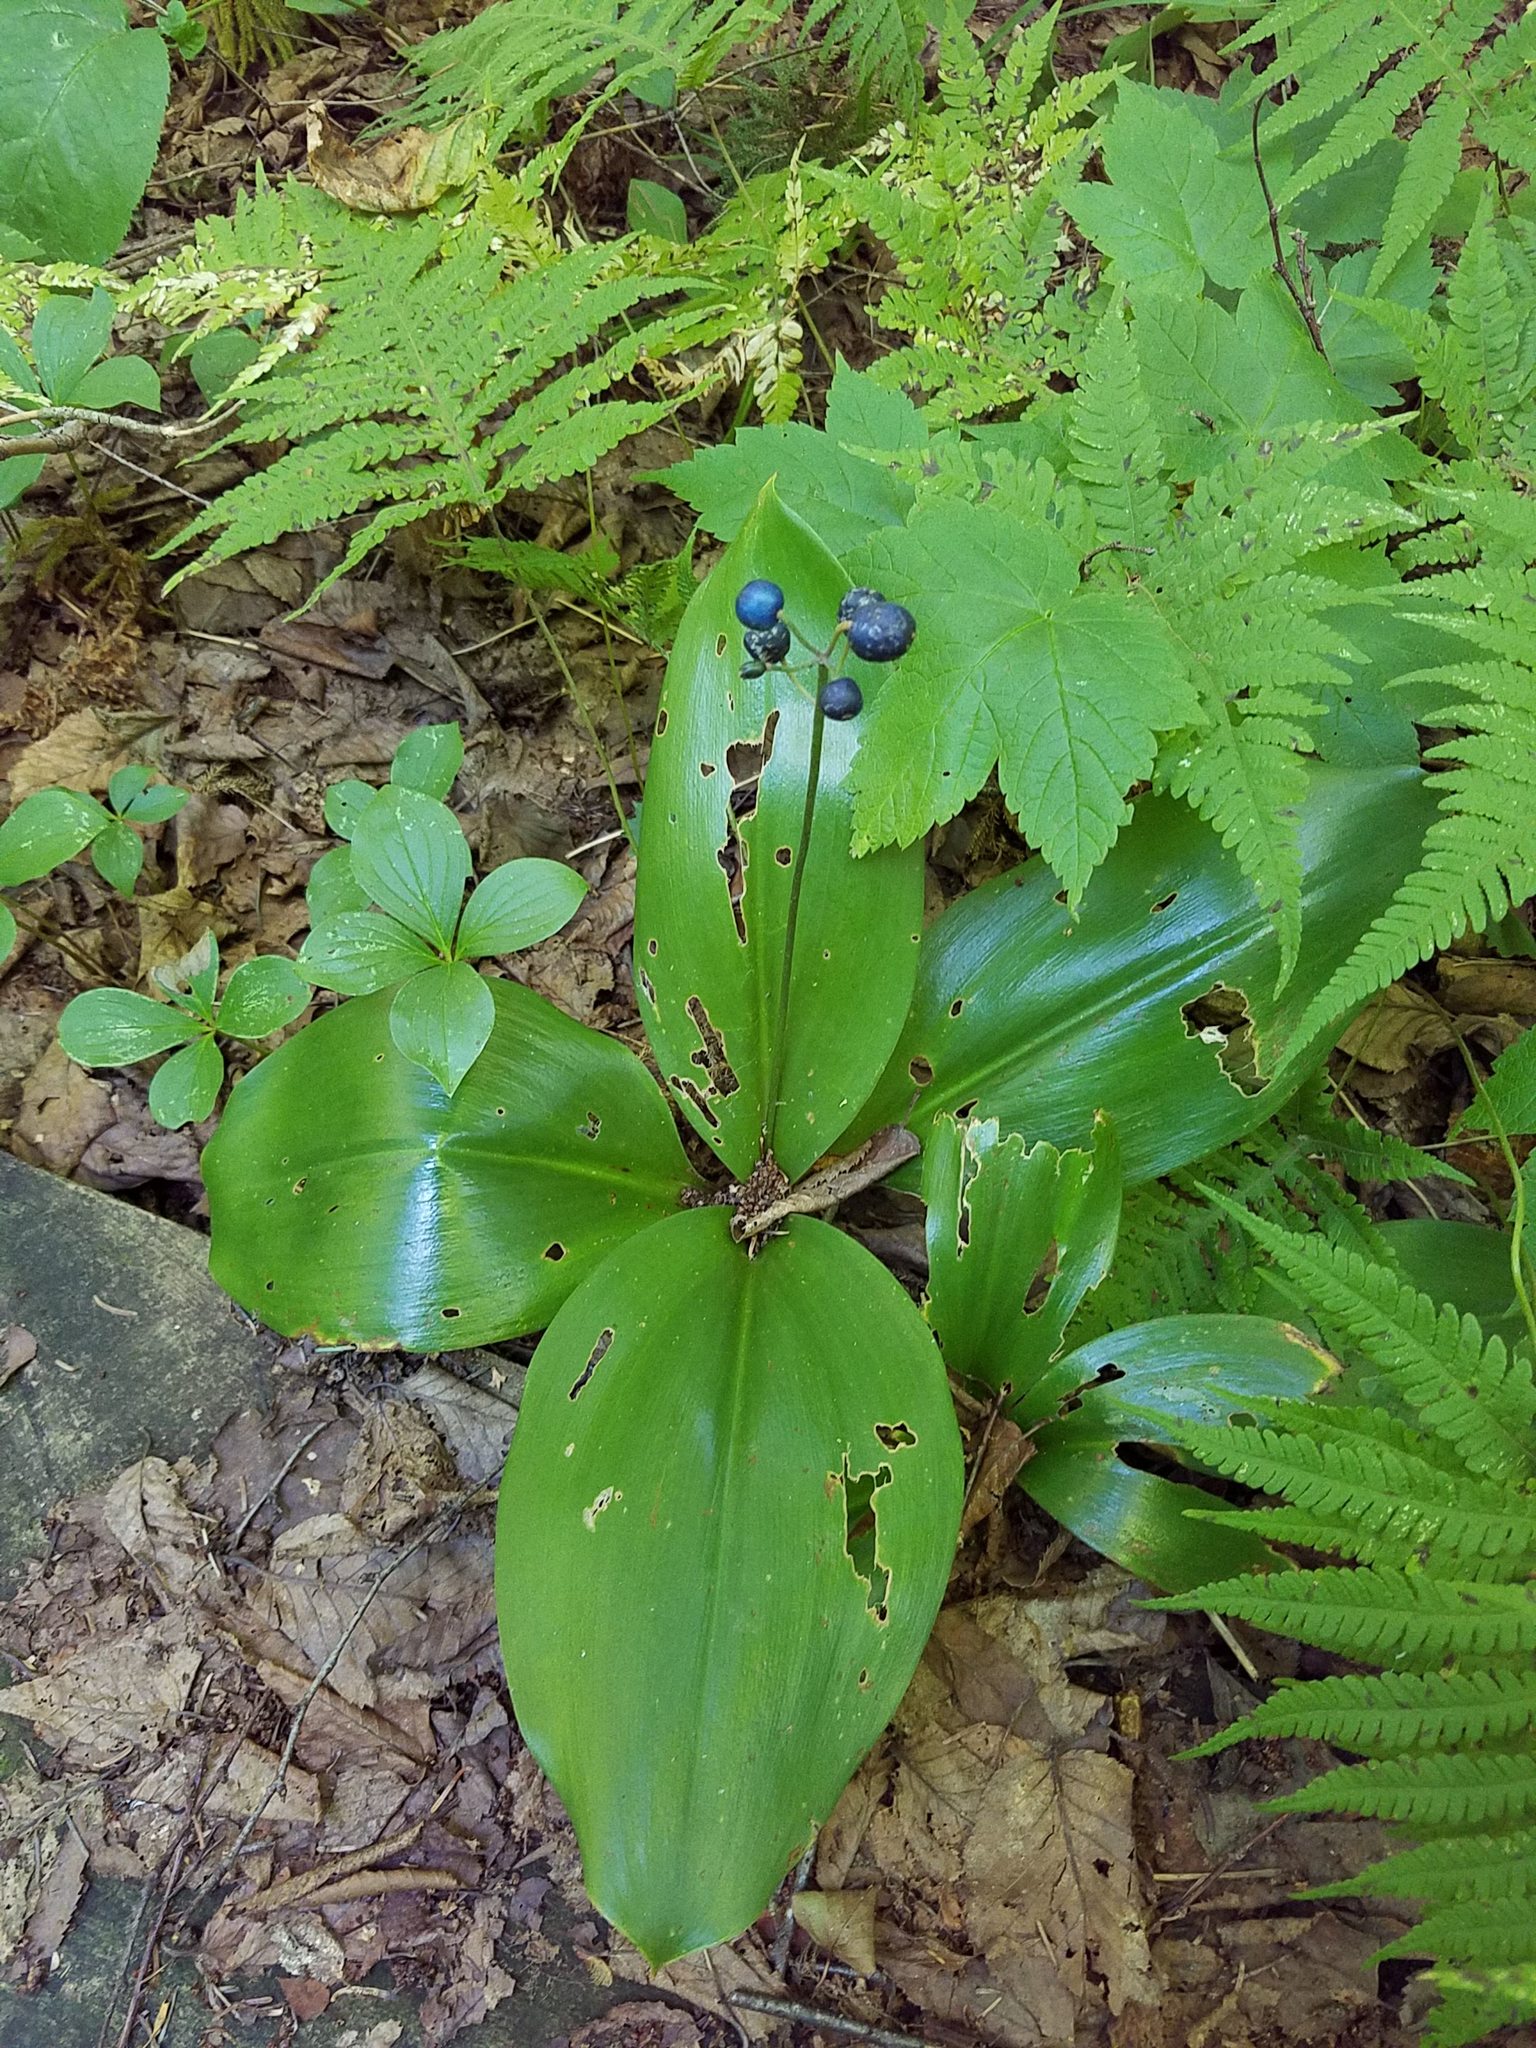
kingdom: Plantae
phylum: Tracheophyta
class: Liliopsida
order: Liliales
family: Liliaceae
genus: Clintonia
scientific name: Clintonia borealis
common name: Yellow clintonia
